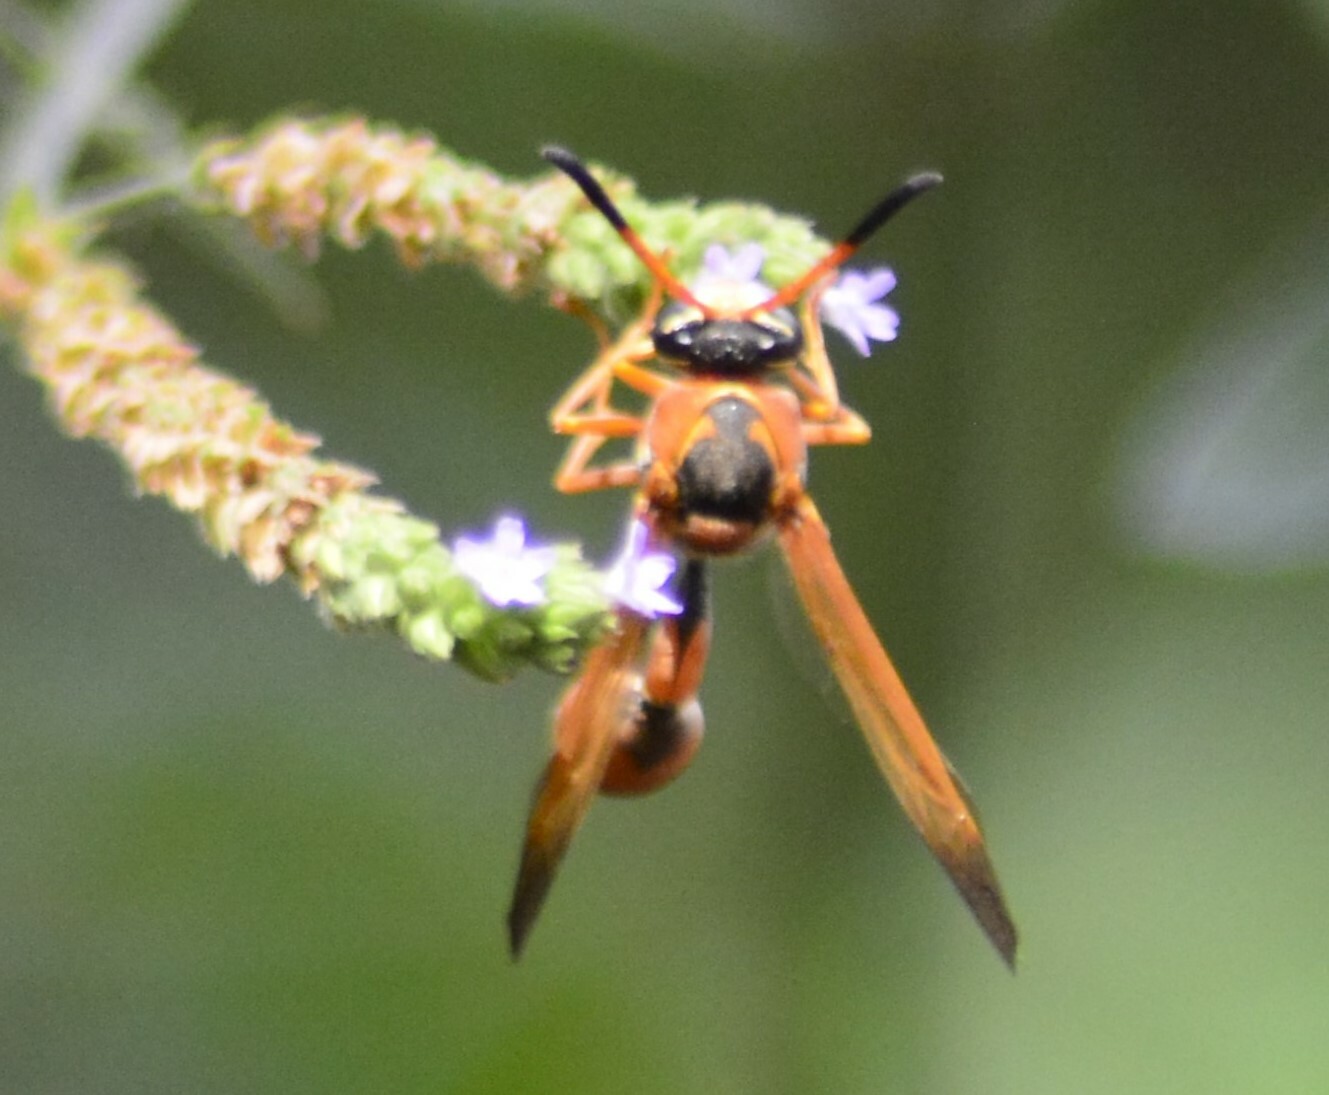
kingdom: Animalia
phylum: Arthropoda
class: Insecta
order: Hymenoptera
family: Eumenidae
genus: Zeta
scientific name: Zeta mendozanus
